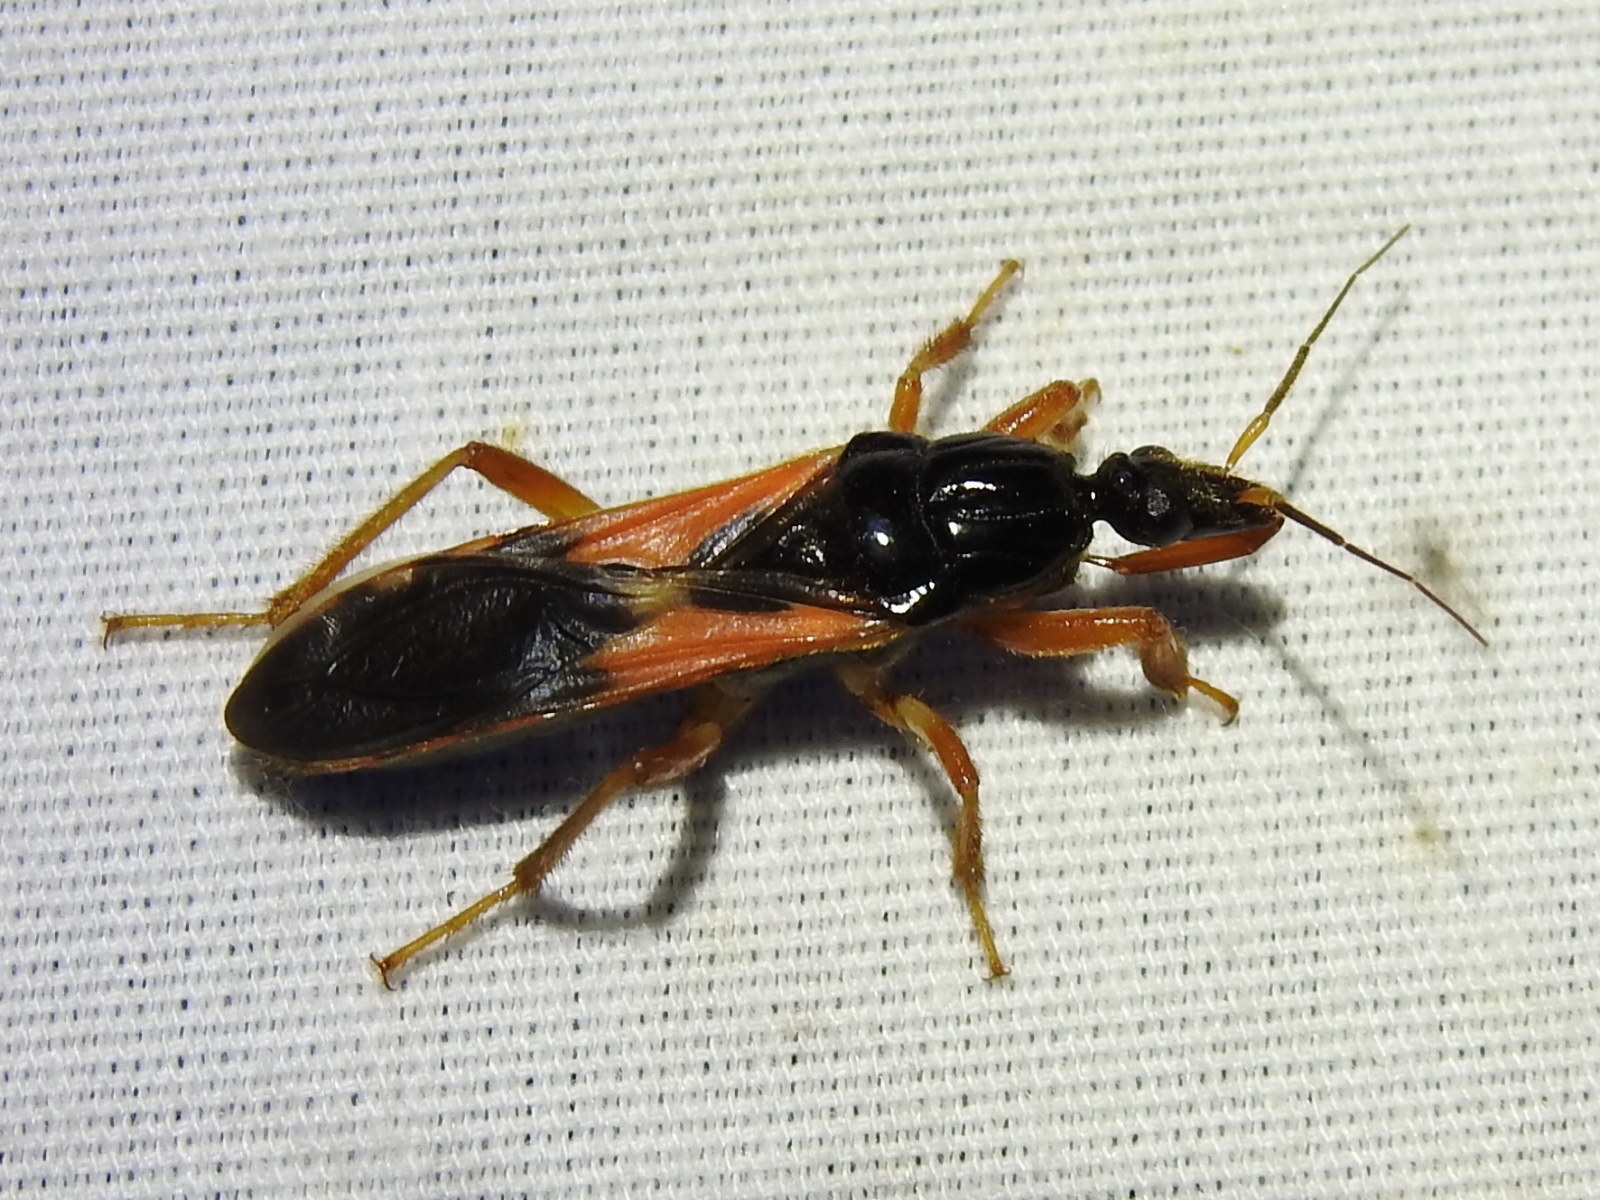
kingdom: Animalia
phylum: Arthropoda
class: Insecta
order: Hemiptera
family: Reduviidae
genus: Sirthenea
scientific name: Sirthenea stria
